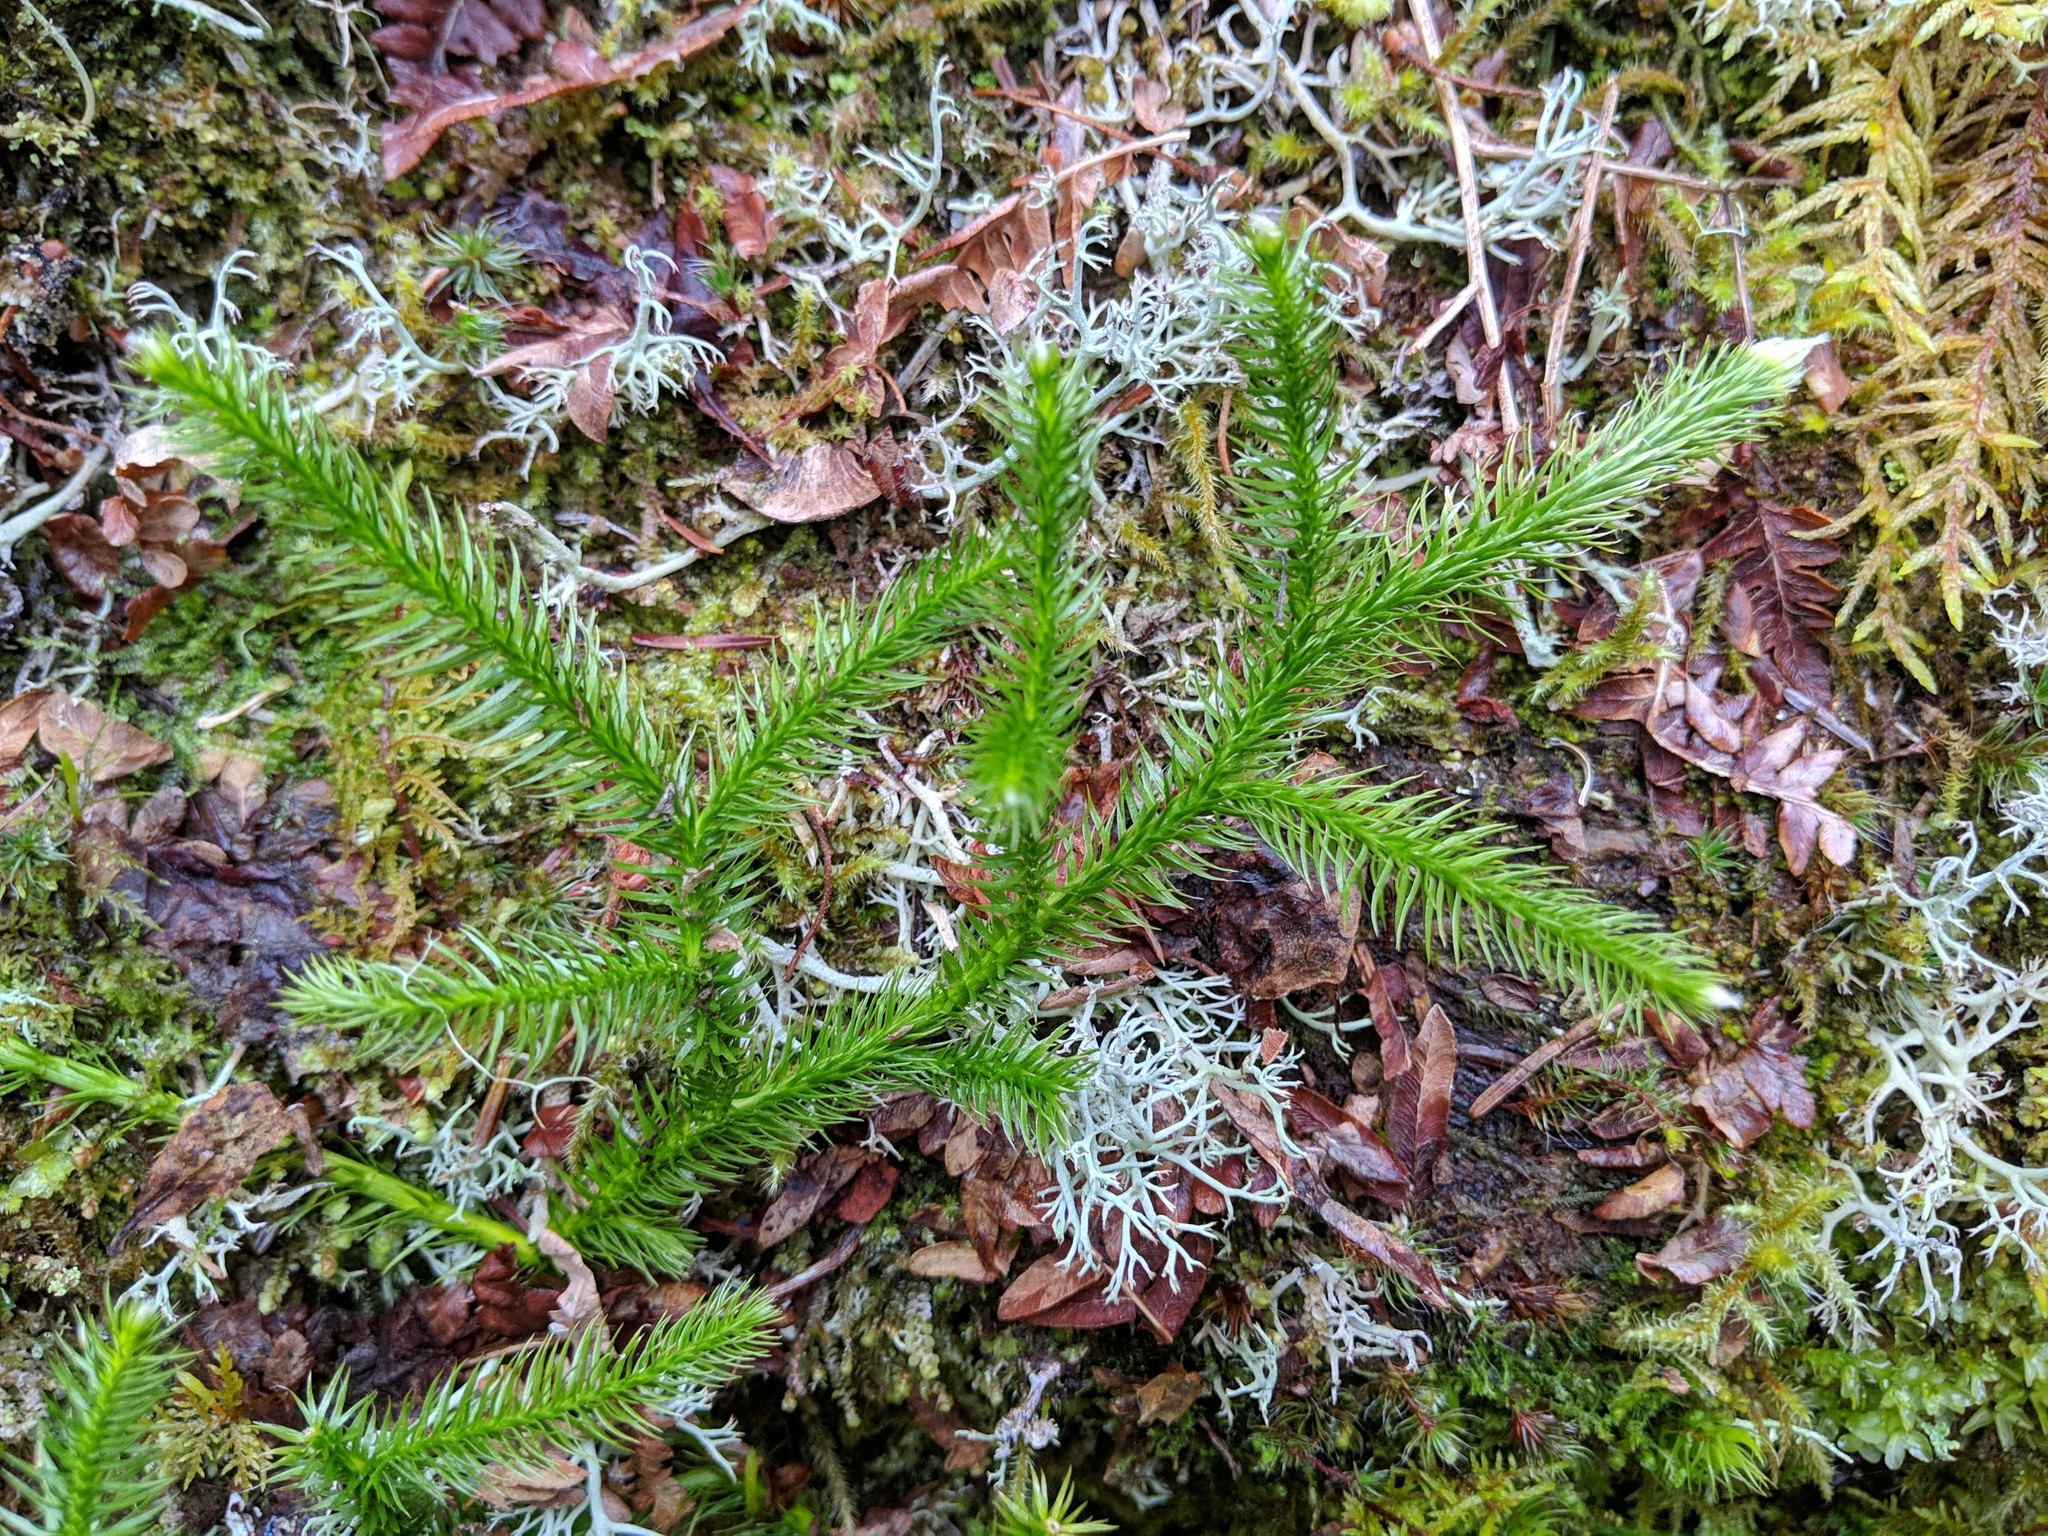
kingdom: Plantae
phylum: Tracheophyta
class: Lycopodiopsida
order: Lycopodiales
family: Lycopodiaceae
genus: Lycopodium
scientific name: Lycopodium clavatum
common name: Stag's-horn clubmoss
